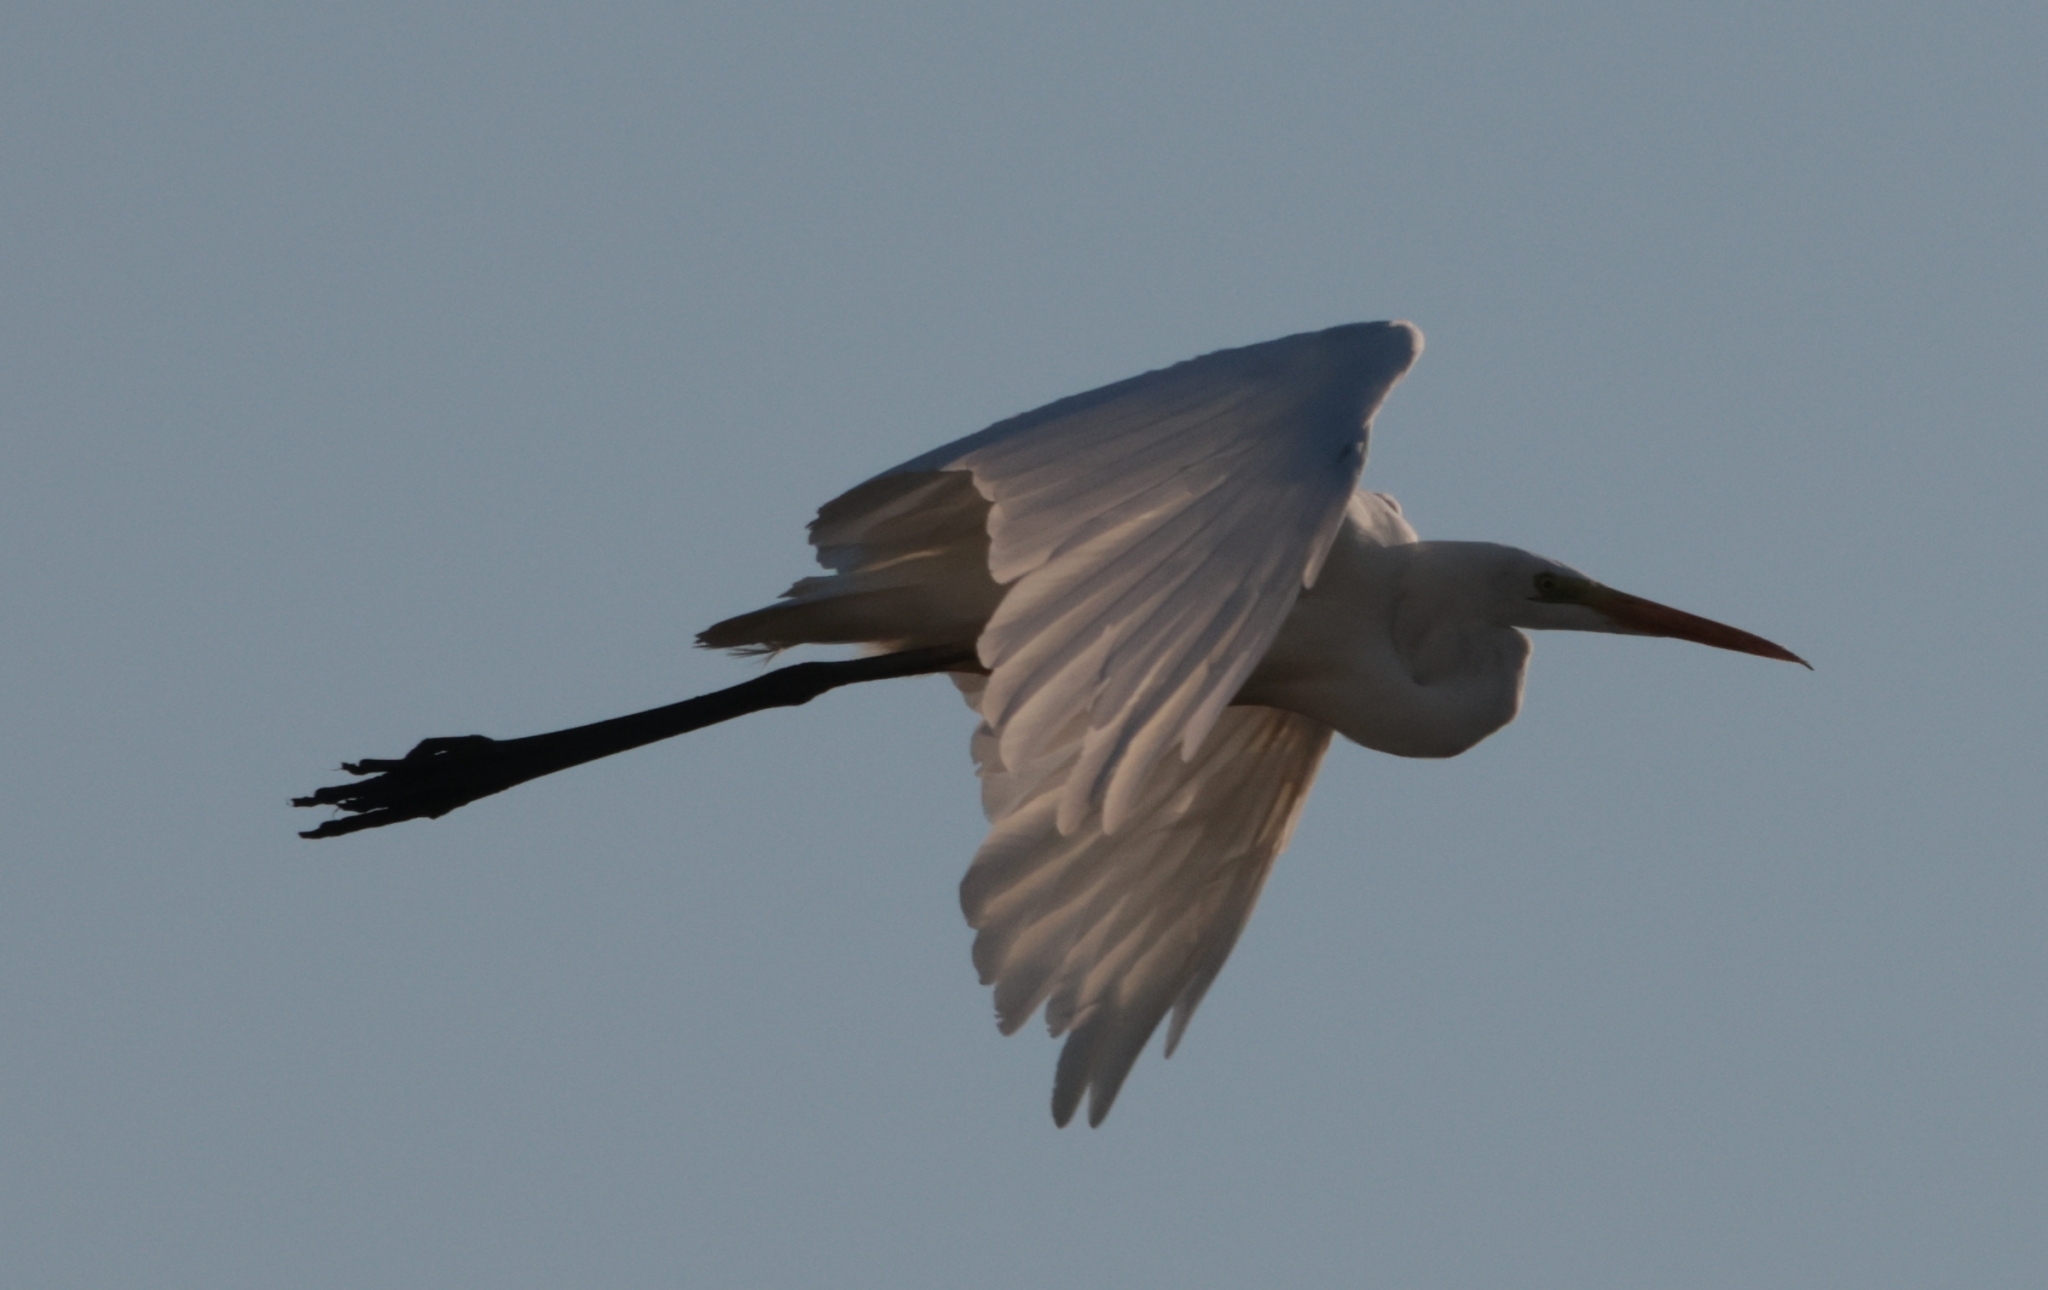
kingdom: Animalia
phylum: Chordata
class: Aves
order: Pelecaniformes
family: Ardeidae
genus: Ardea
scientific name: Ardea alba
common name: Great egret
